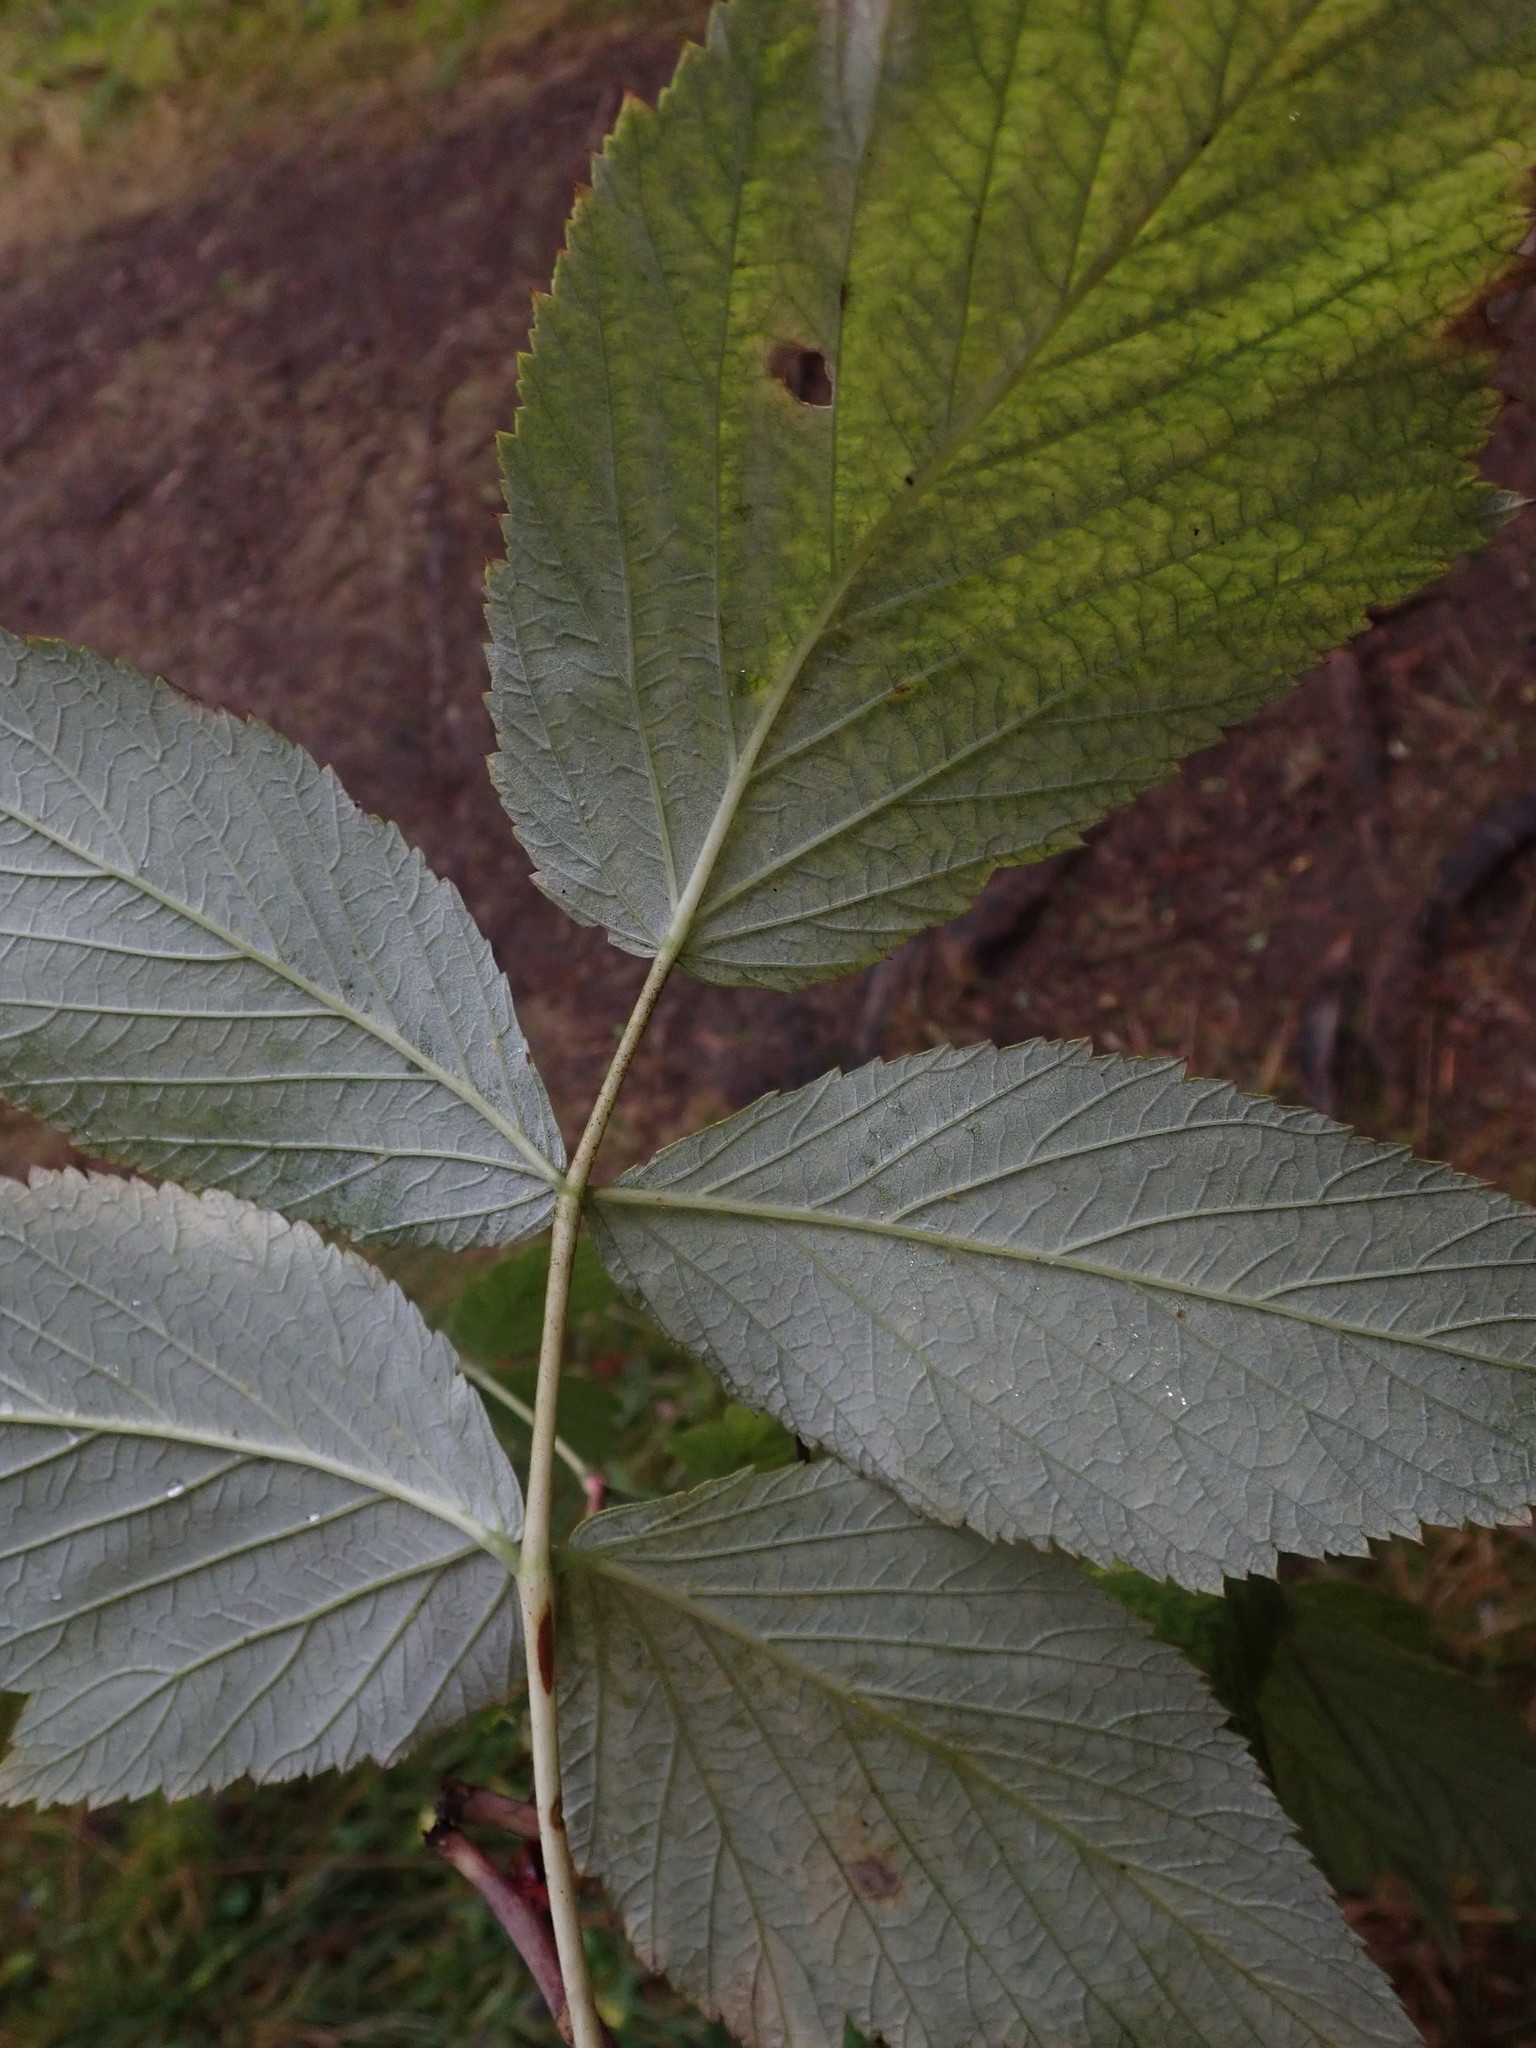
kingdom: Plantae
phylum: Tracheophyta
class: Magnoliopsida
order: Rosales
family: Rosaceae
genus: Rubus
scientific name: Rubus idaeus
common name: Raspberry
